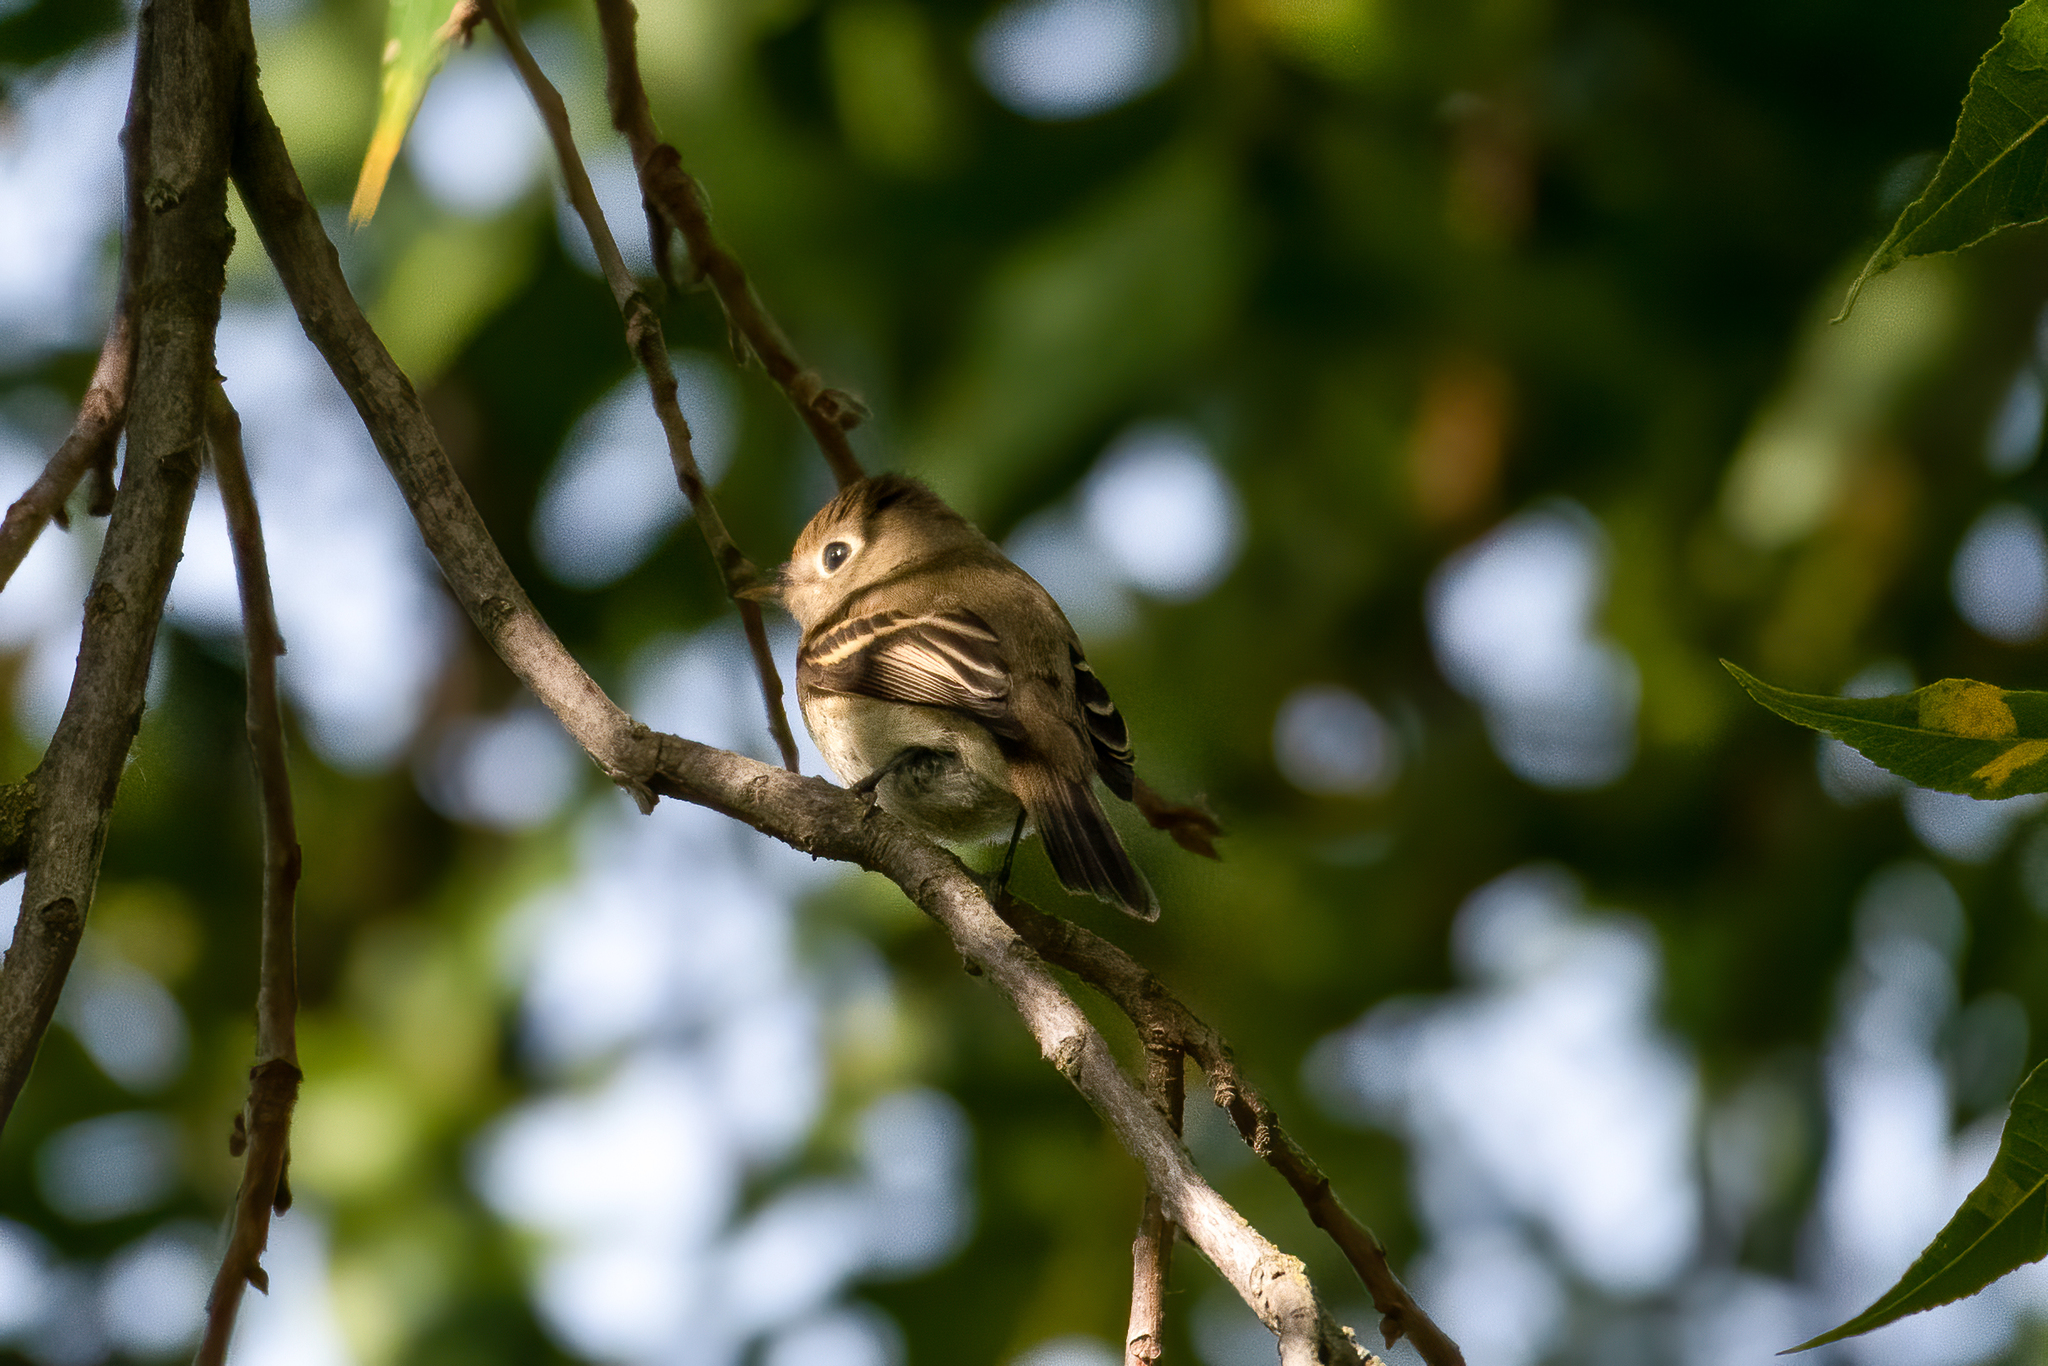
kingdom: Animalia
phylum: Chordata
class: Aves
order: Passeriformes
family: Tyrannidae
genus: Empidonax
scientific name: Empidonax difficilis
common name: Pacific-slope flycatcher
